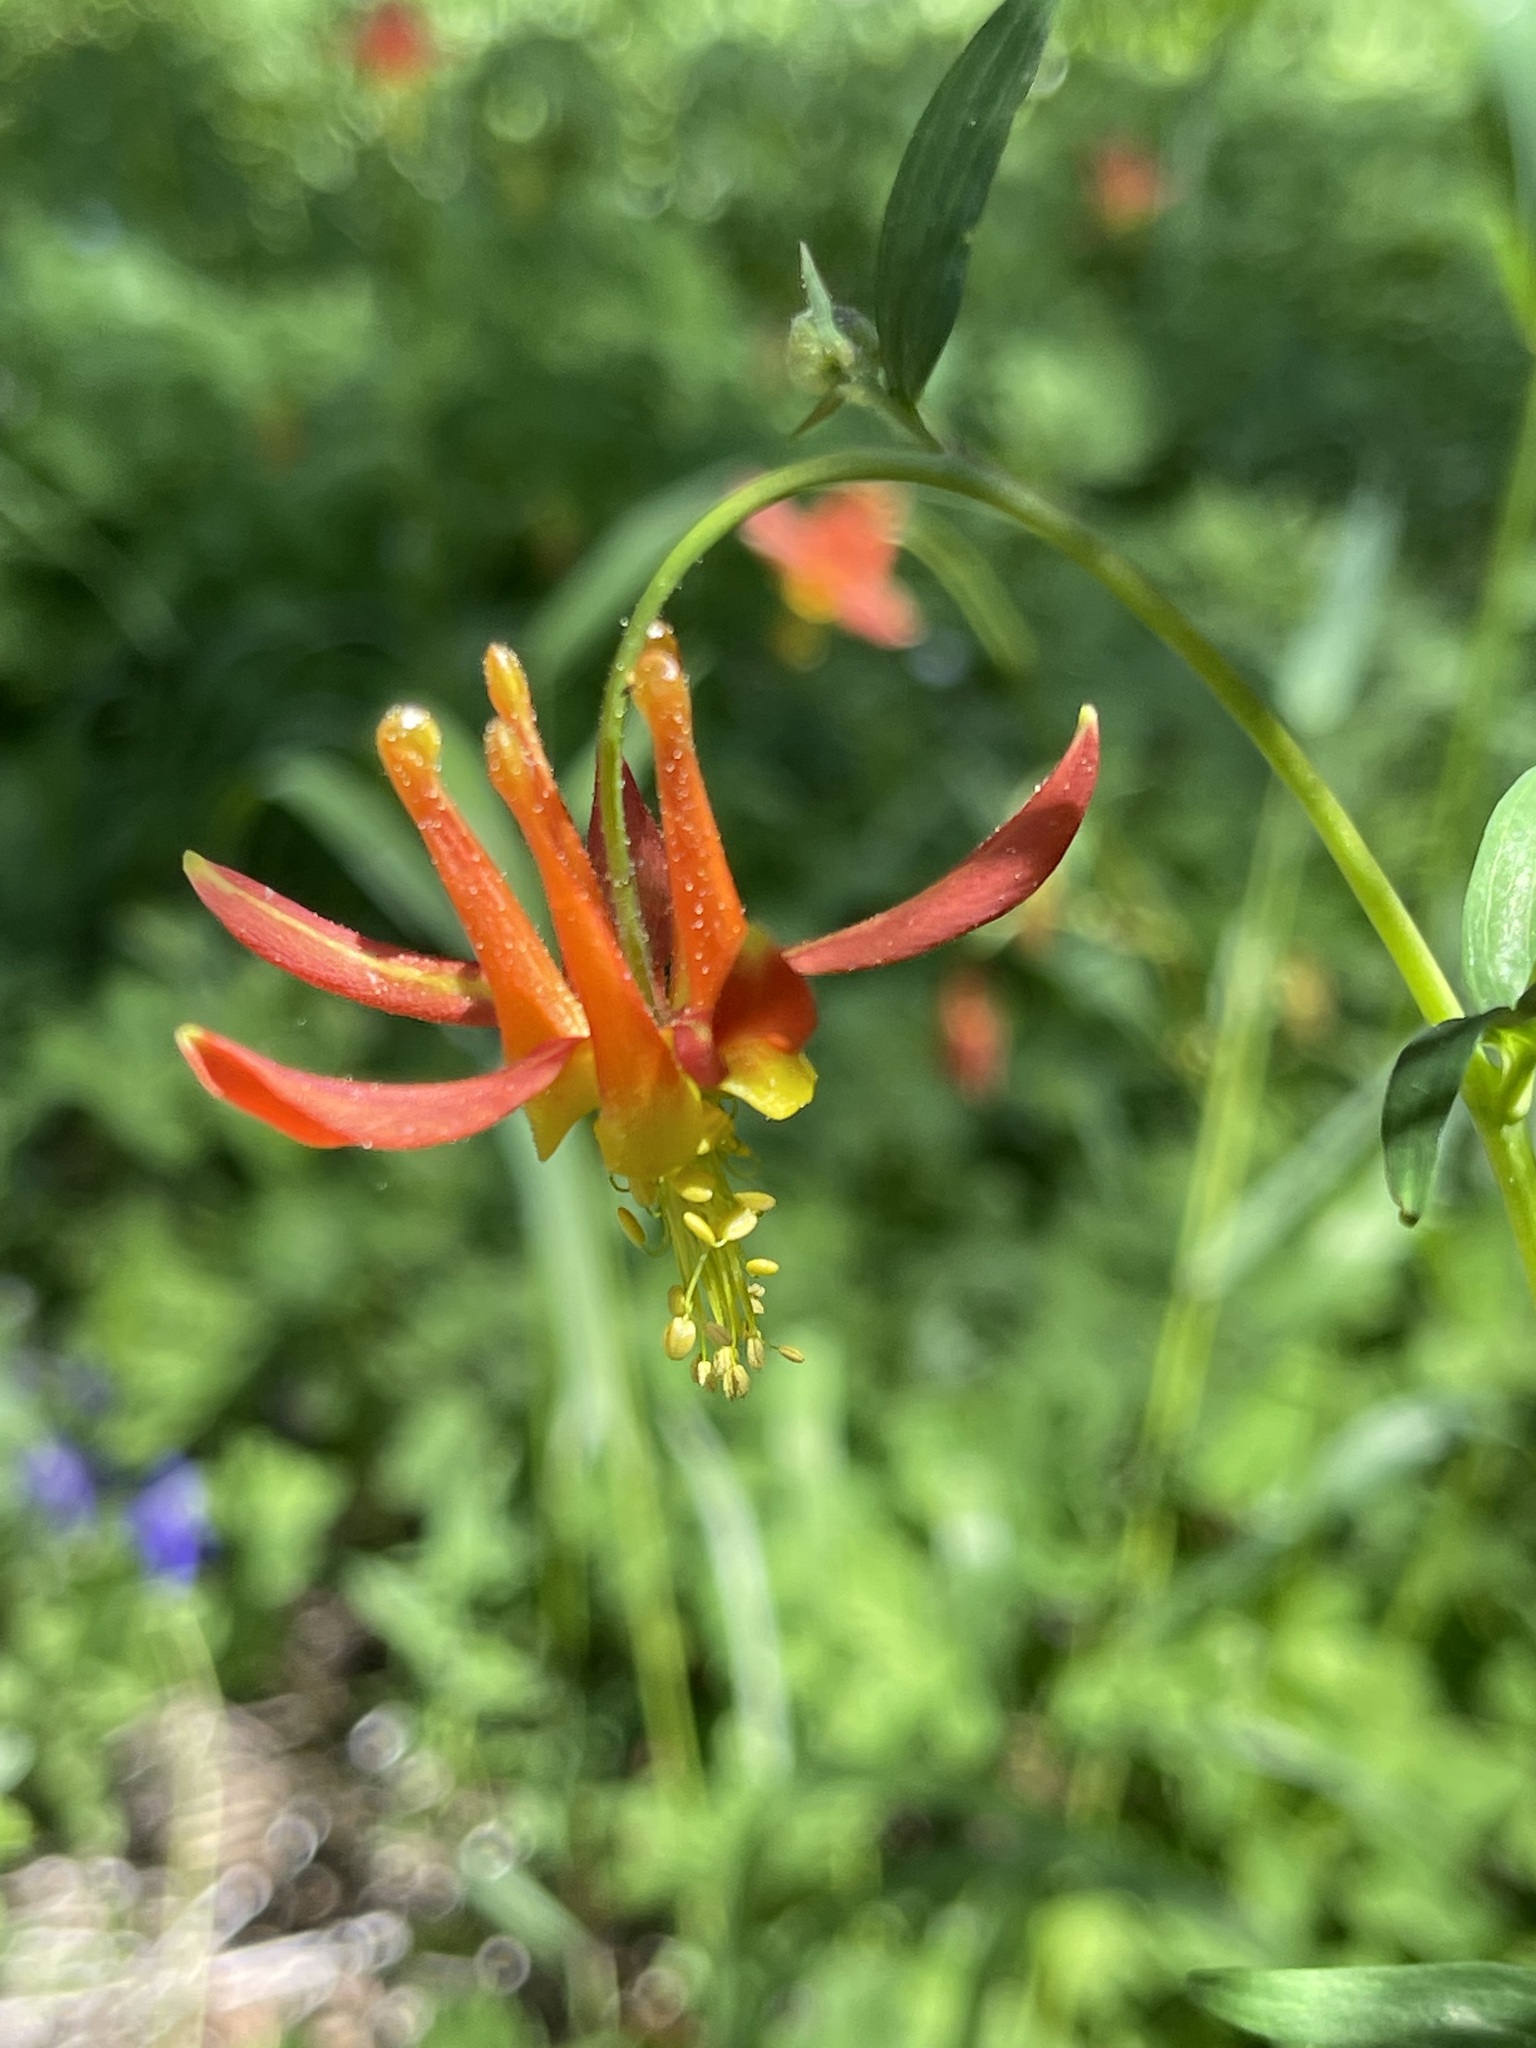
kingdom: Plantae
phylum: Tracheophyta
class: Magnoliopsida
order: Ranunculales
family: Ranunculaceae
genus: Aquilegia
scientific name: Aquilegia formosa
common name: Sitka columbine
